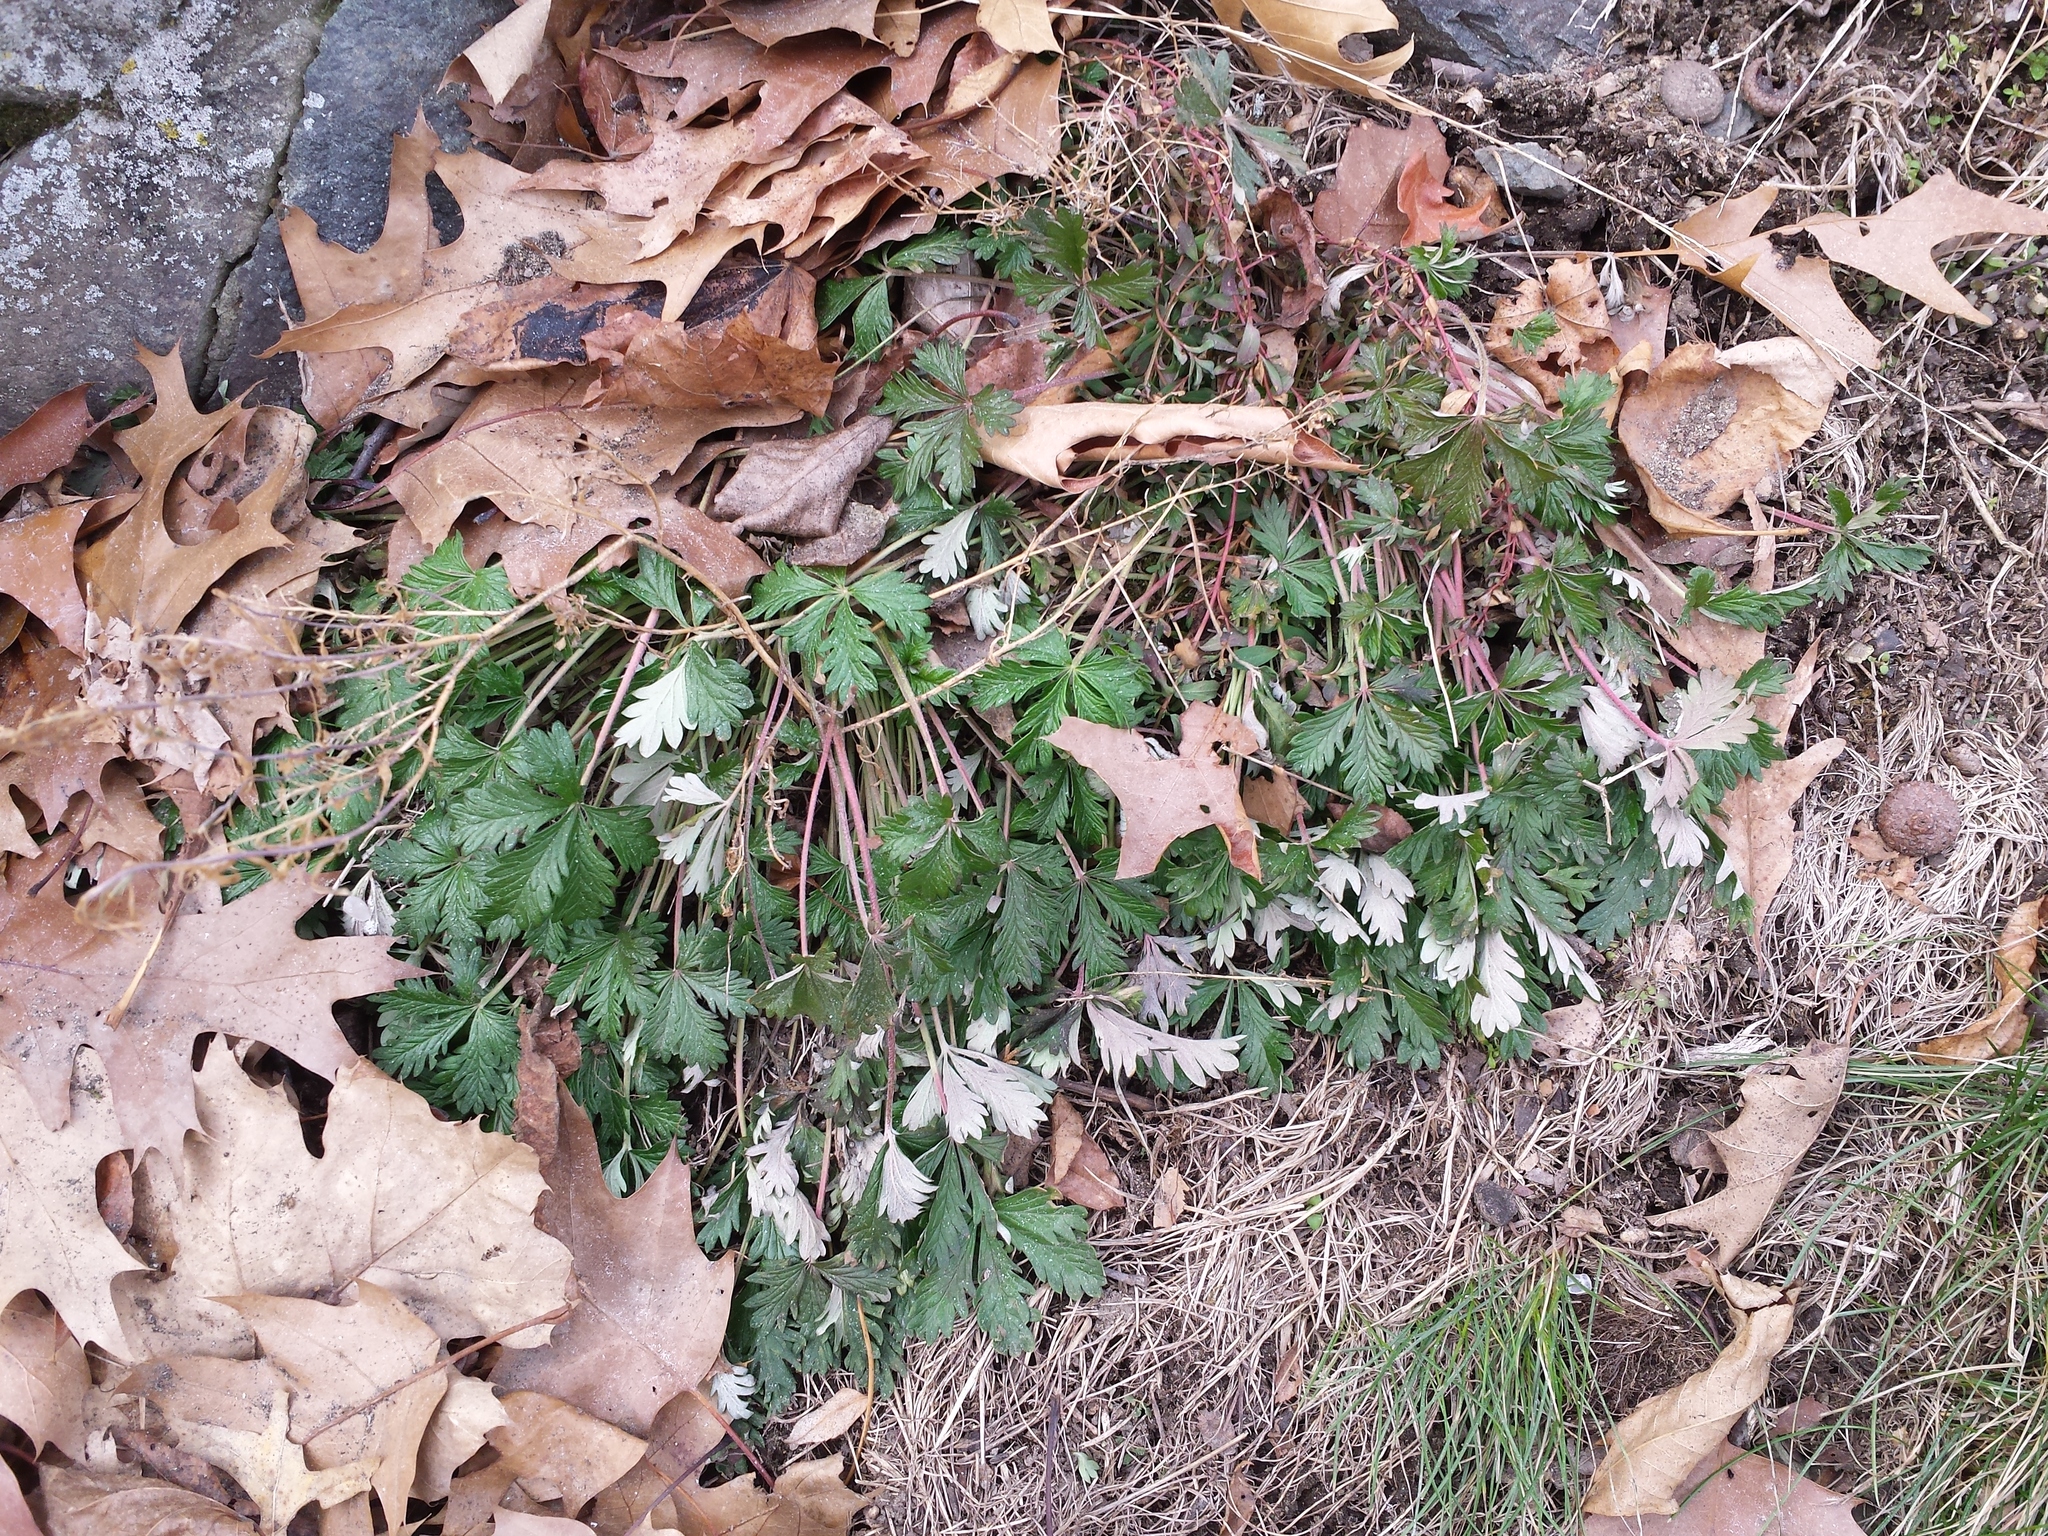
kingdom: Plantae
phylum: Tracheophyta
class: Magnoliopsida
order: Rosales
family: Rosaceae
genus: Potentilla
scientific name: Potentilla argentea
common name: Hoary cinquefoil
